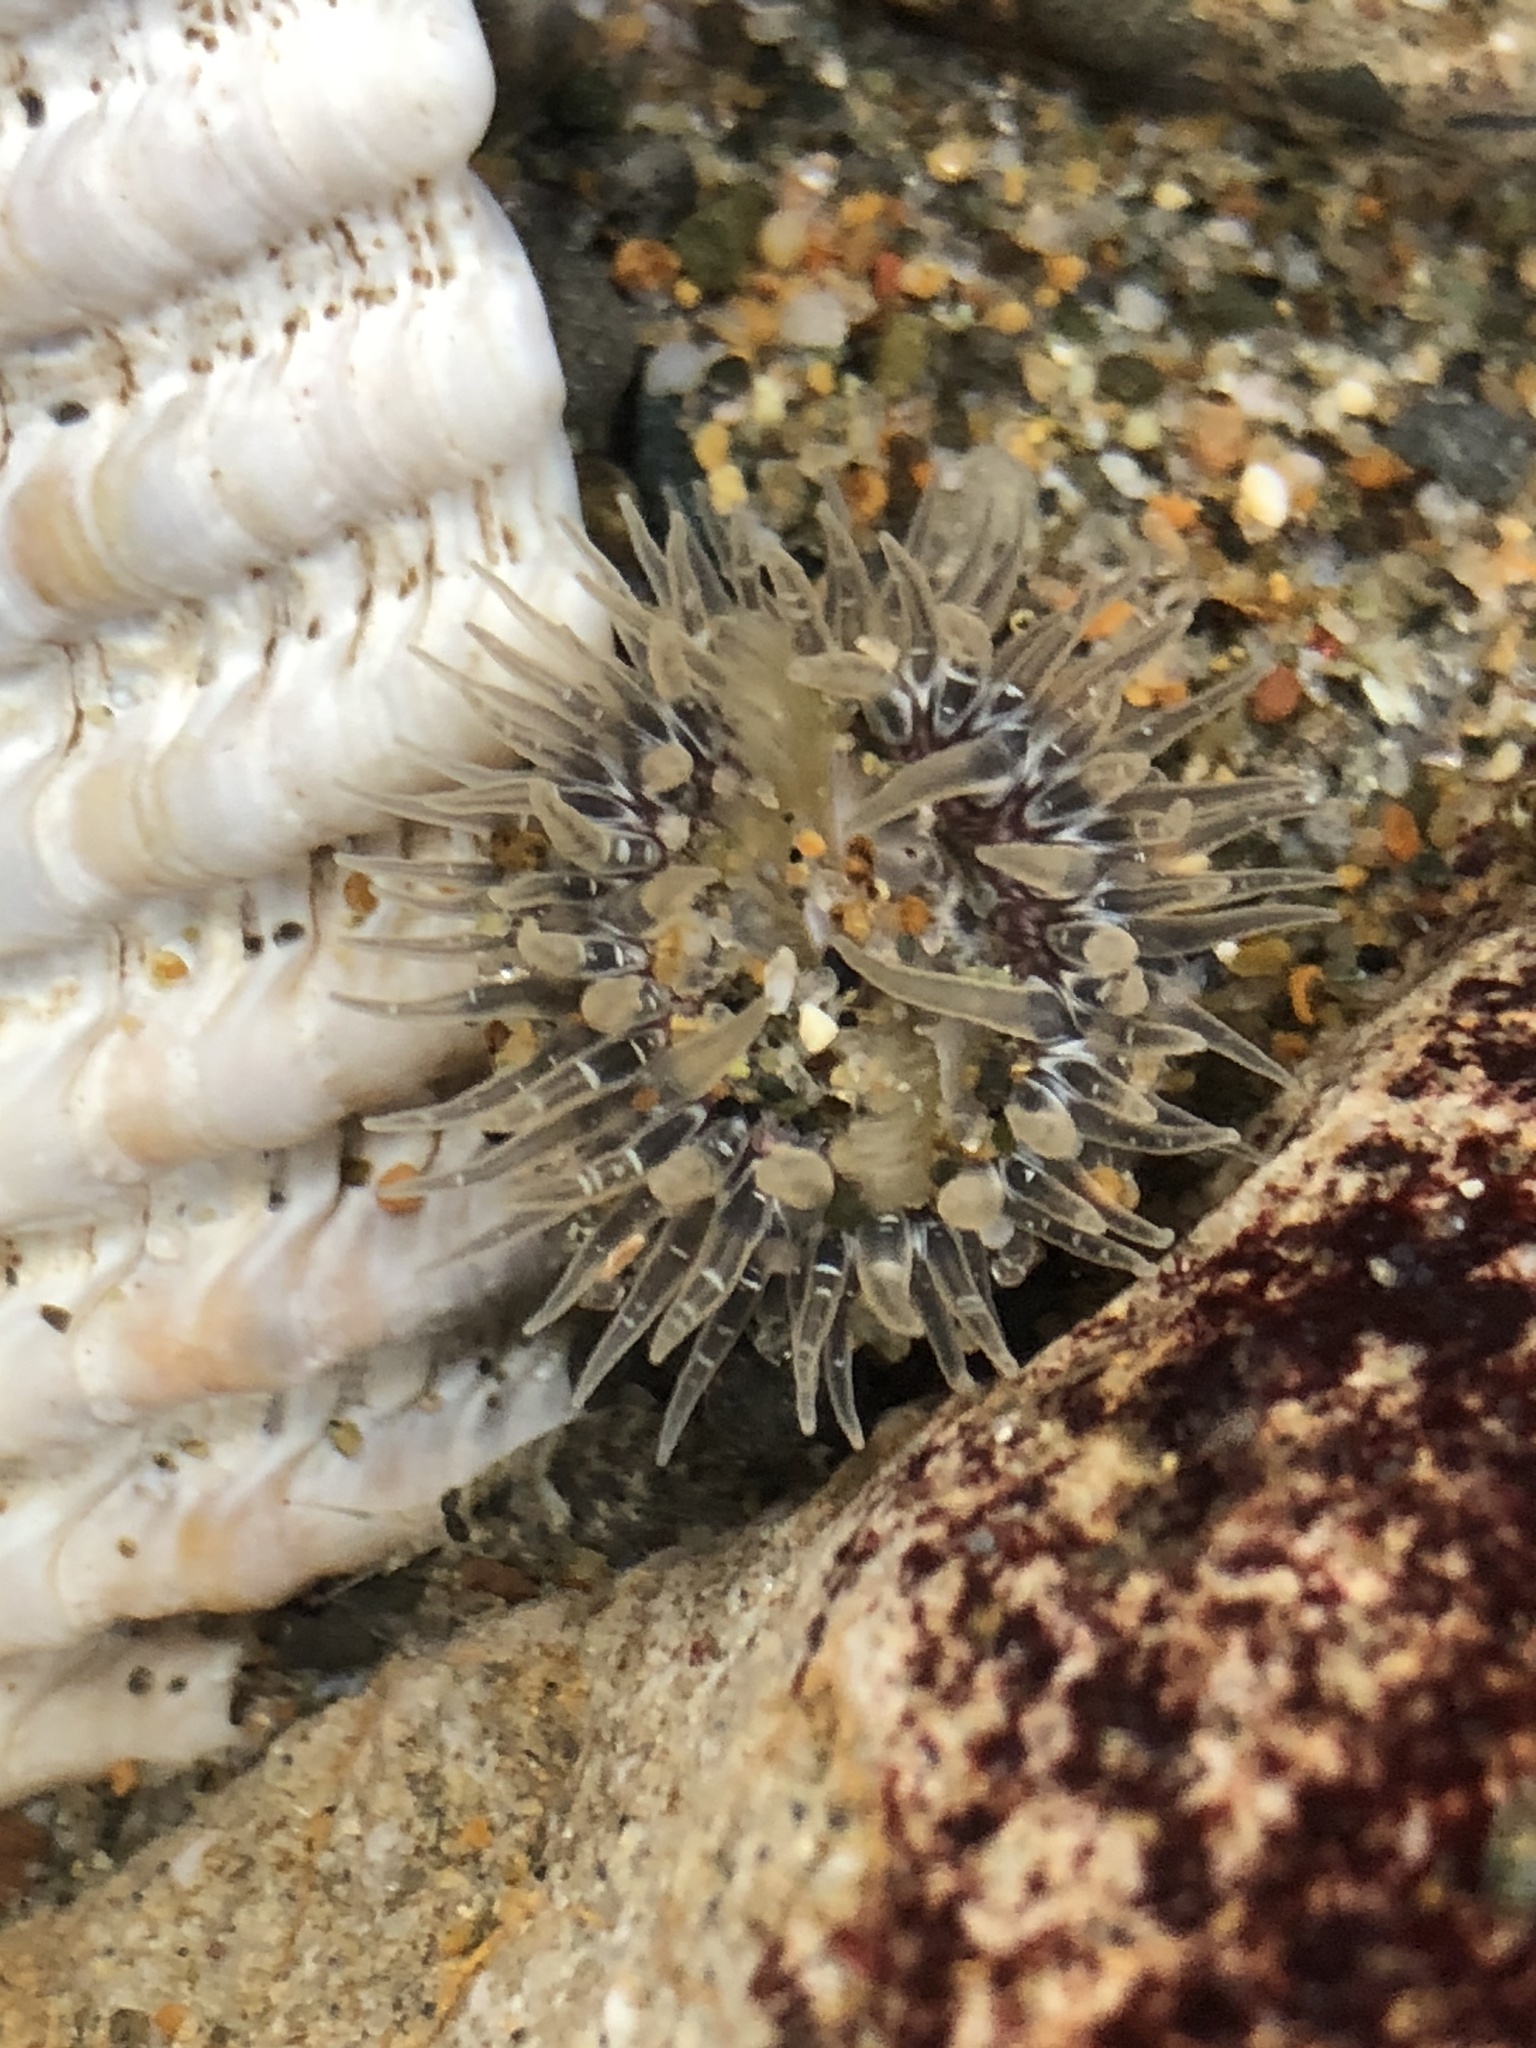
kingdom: Animalia
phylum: Cnidaria
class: Anthozoa
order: Actiniaria
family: Actiniidae
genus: Anthopleura
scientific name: Anthopleura artemisia
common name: Buried sea anemone
